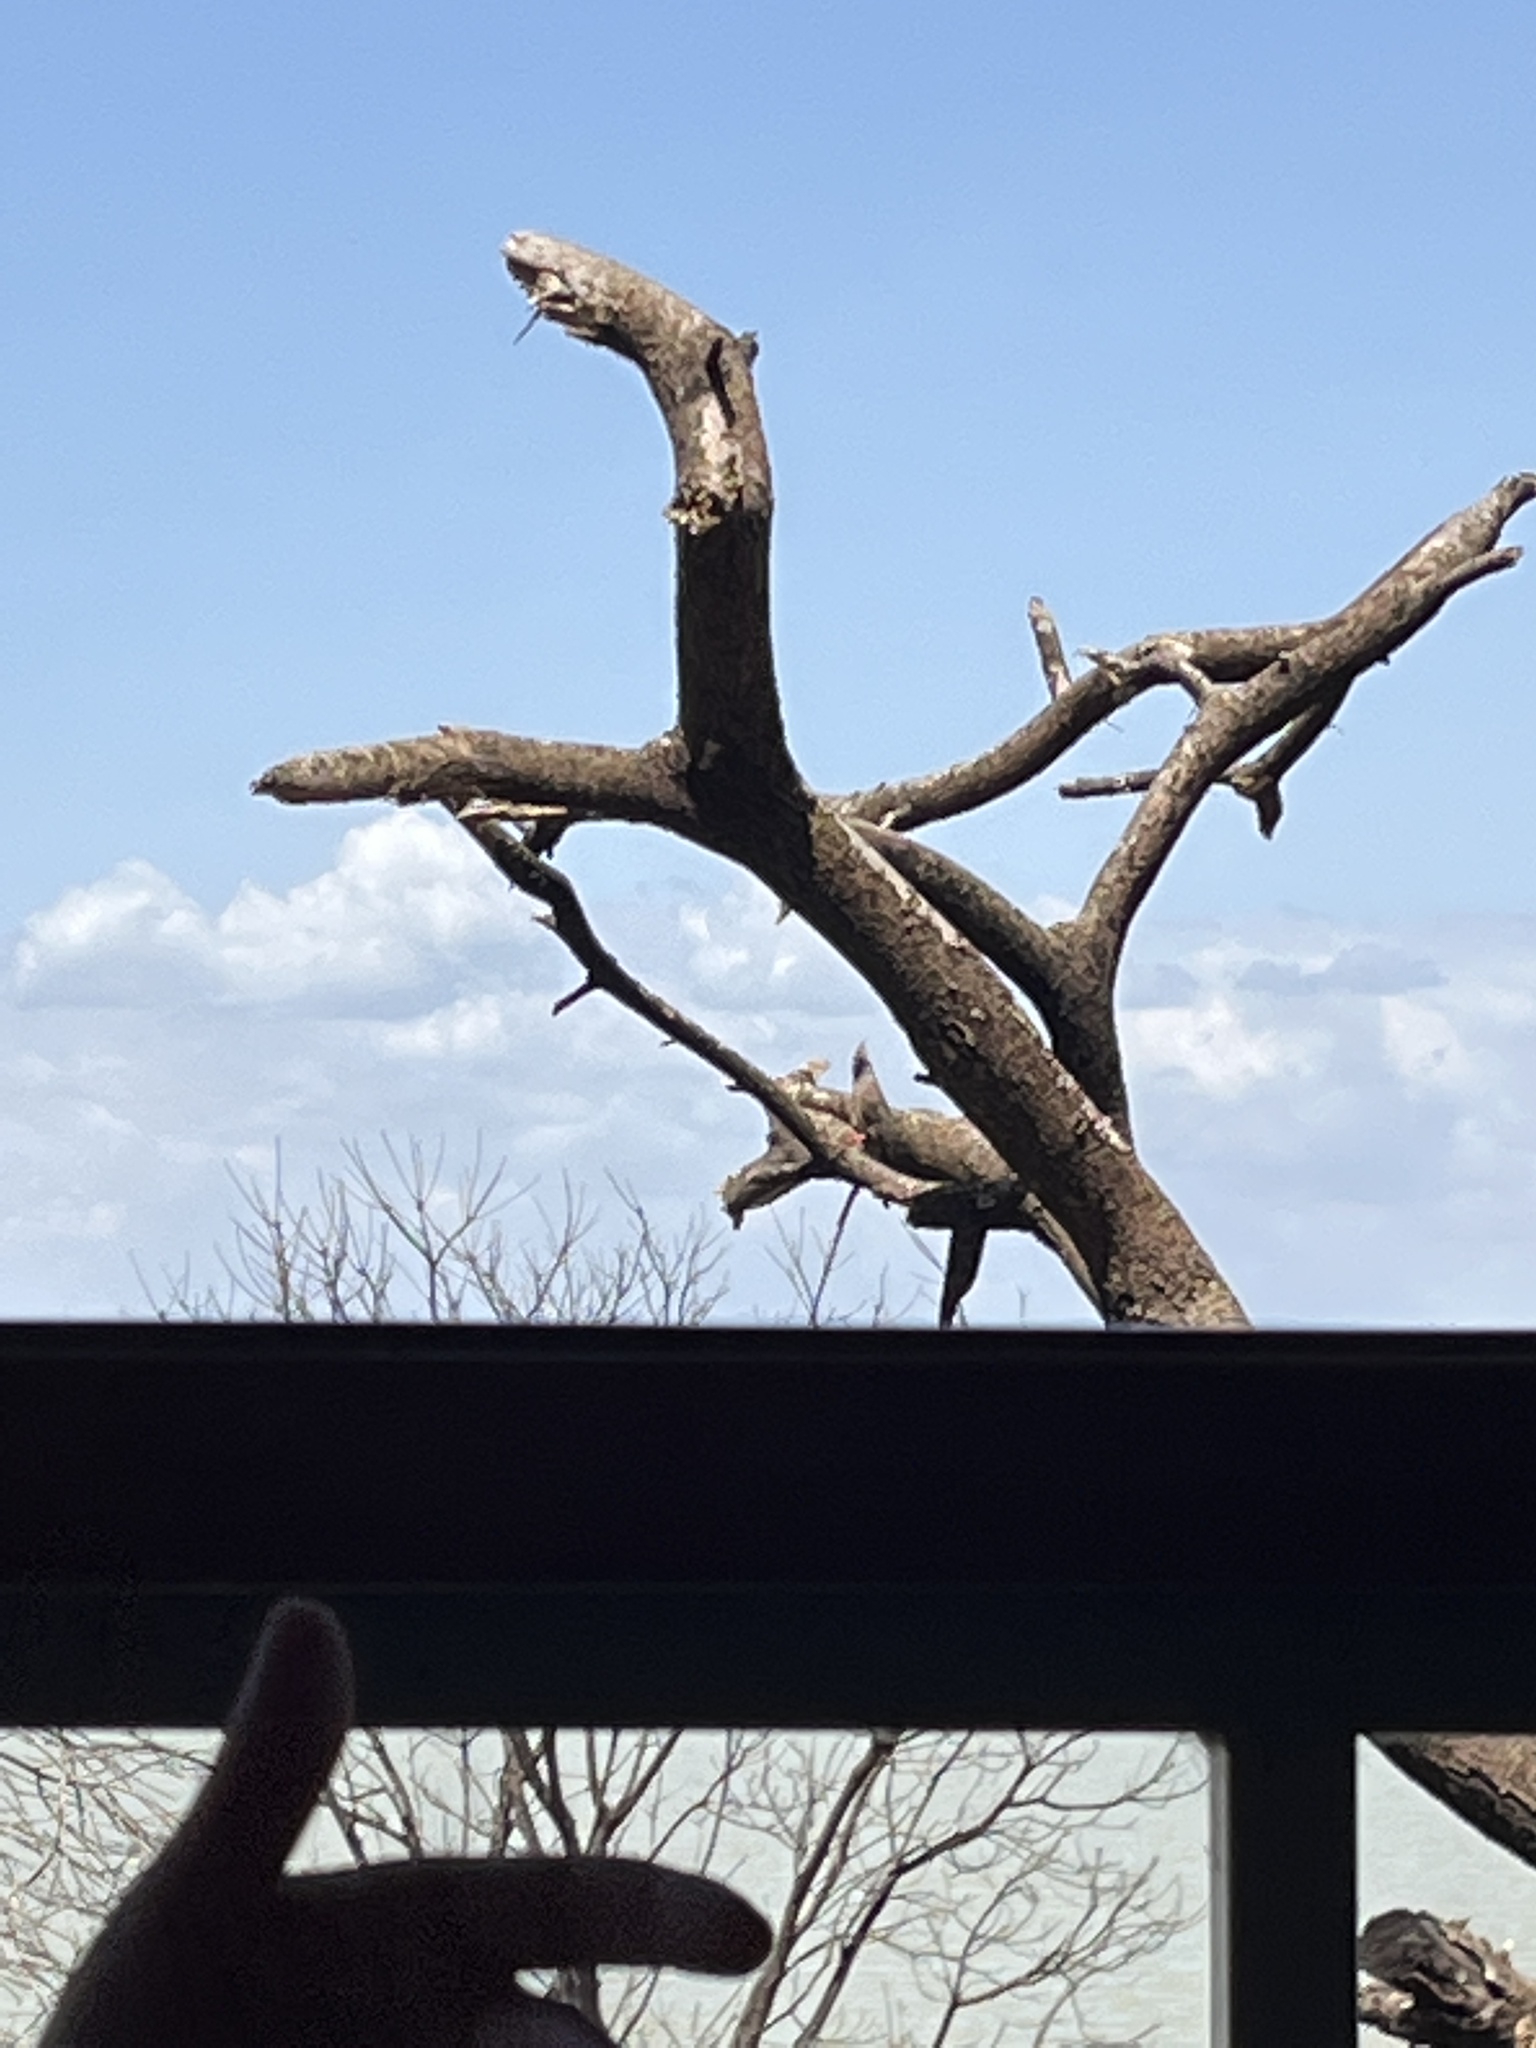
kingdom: Animalia
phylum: Chordata
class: Aves
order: Coliiformes
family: Coliidae
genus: Colius
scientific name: Colius striatus
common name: Speckled mousebird
